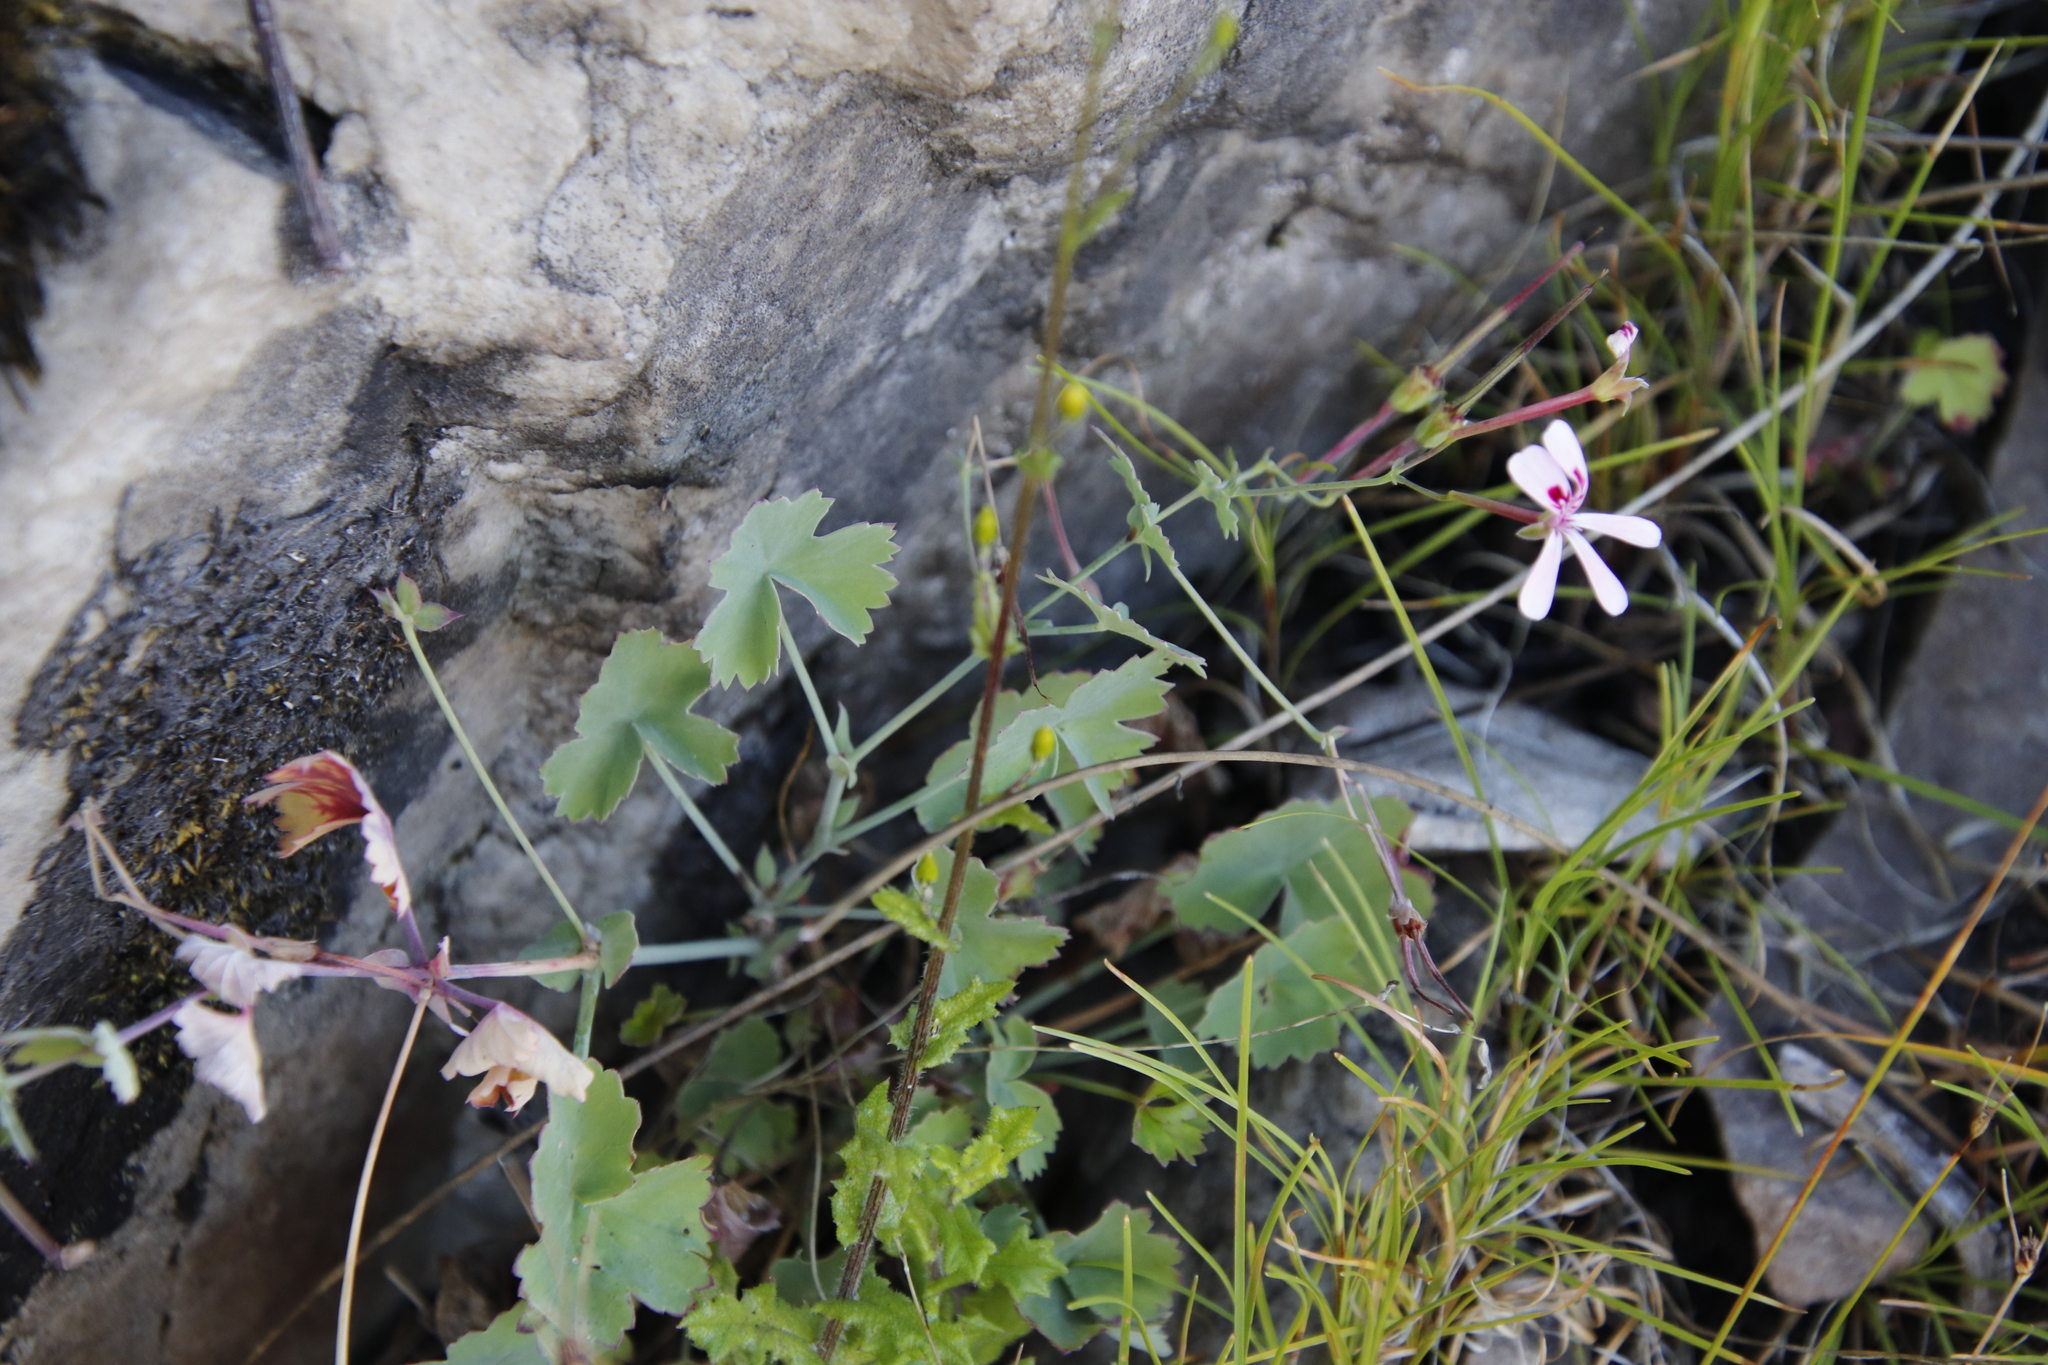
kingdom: Plantae
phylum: Tracheophyta
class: Magnoliopsida
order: Geraniales
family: Geraniaceae
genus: Pelargonium
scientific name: Pelargonium patulum
